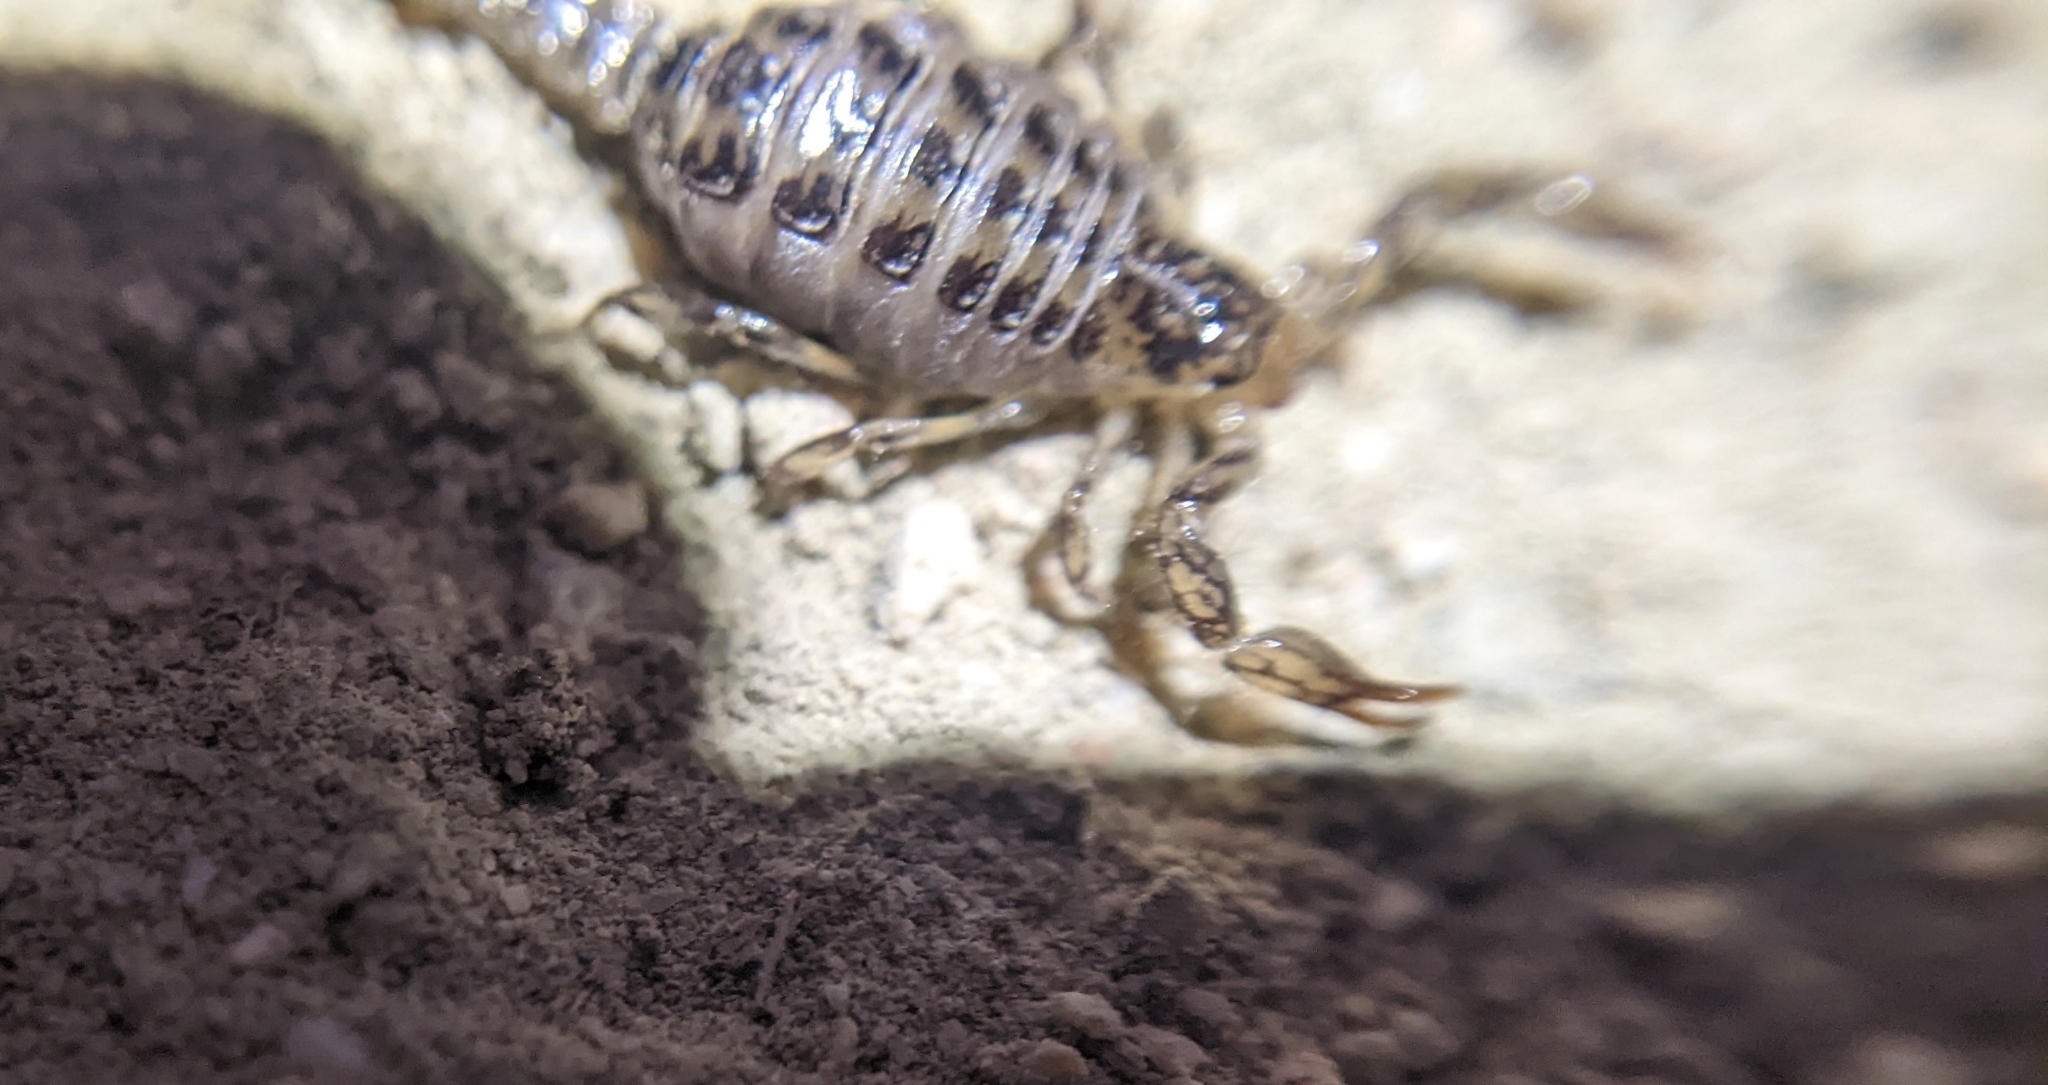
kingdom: Animalia
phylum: Arthropoda
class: Arachnida
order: Scorpiones
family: Superstitioniidae
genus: Superstitionia
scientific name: Superstitionia donensis
